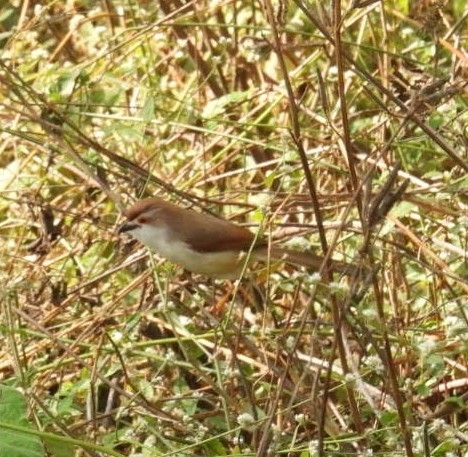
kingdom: Animalia
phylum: Chordata
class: Aves
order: Passeriformes
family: Sylviidae
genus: Chrysomma
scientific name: Chrysomma sinense
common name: Yellow-eyed babbler
